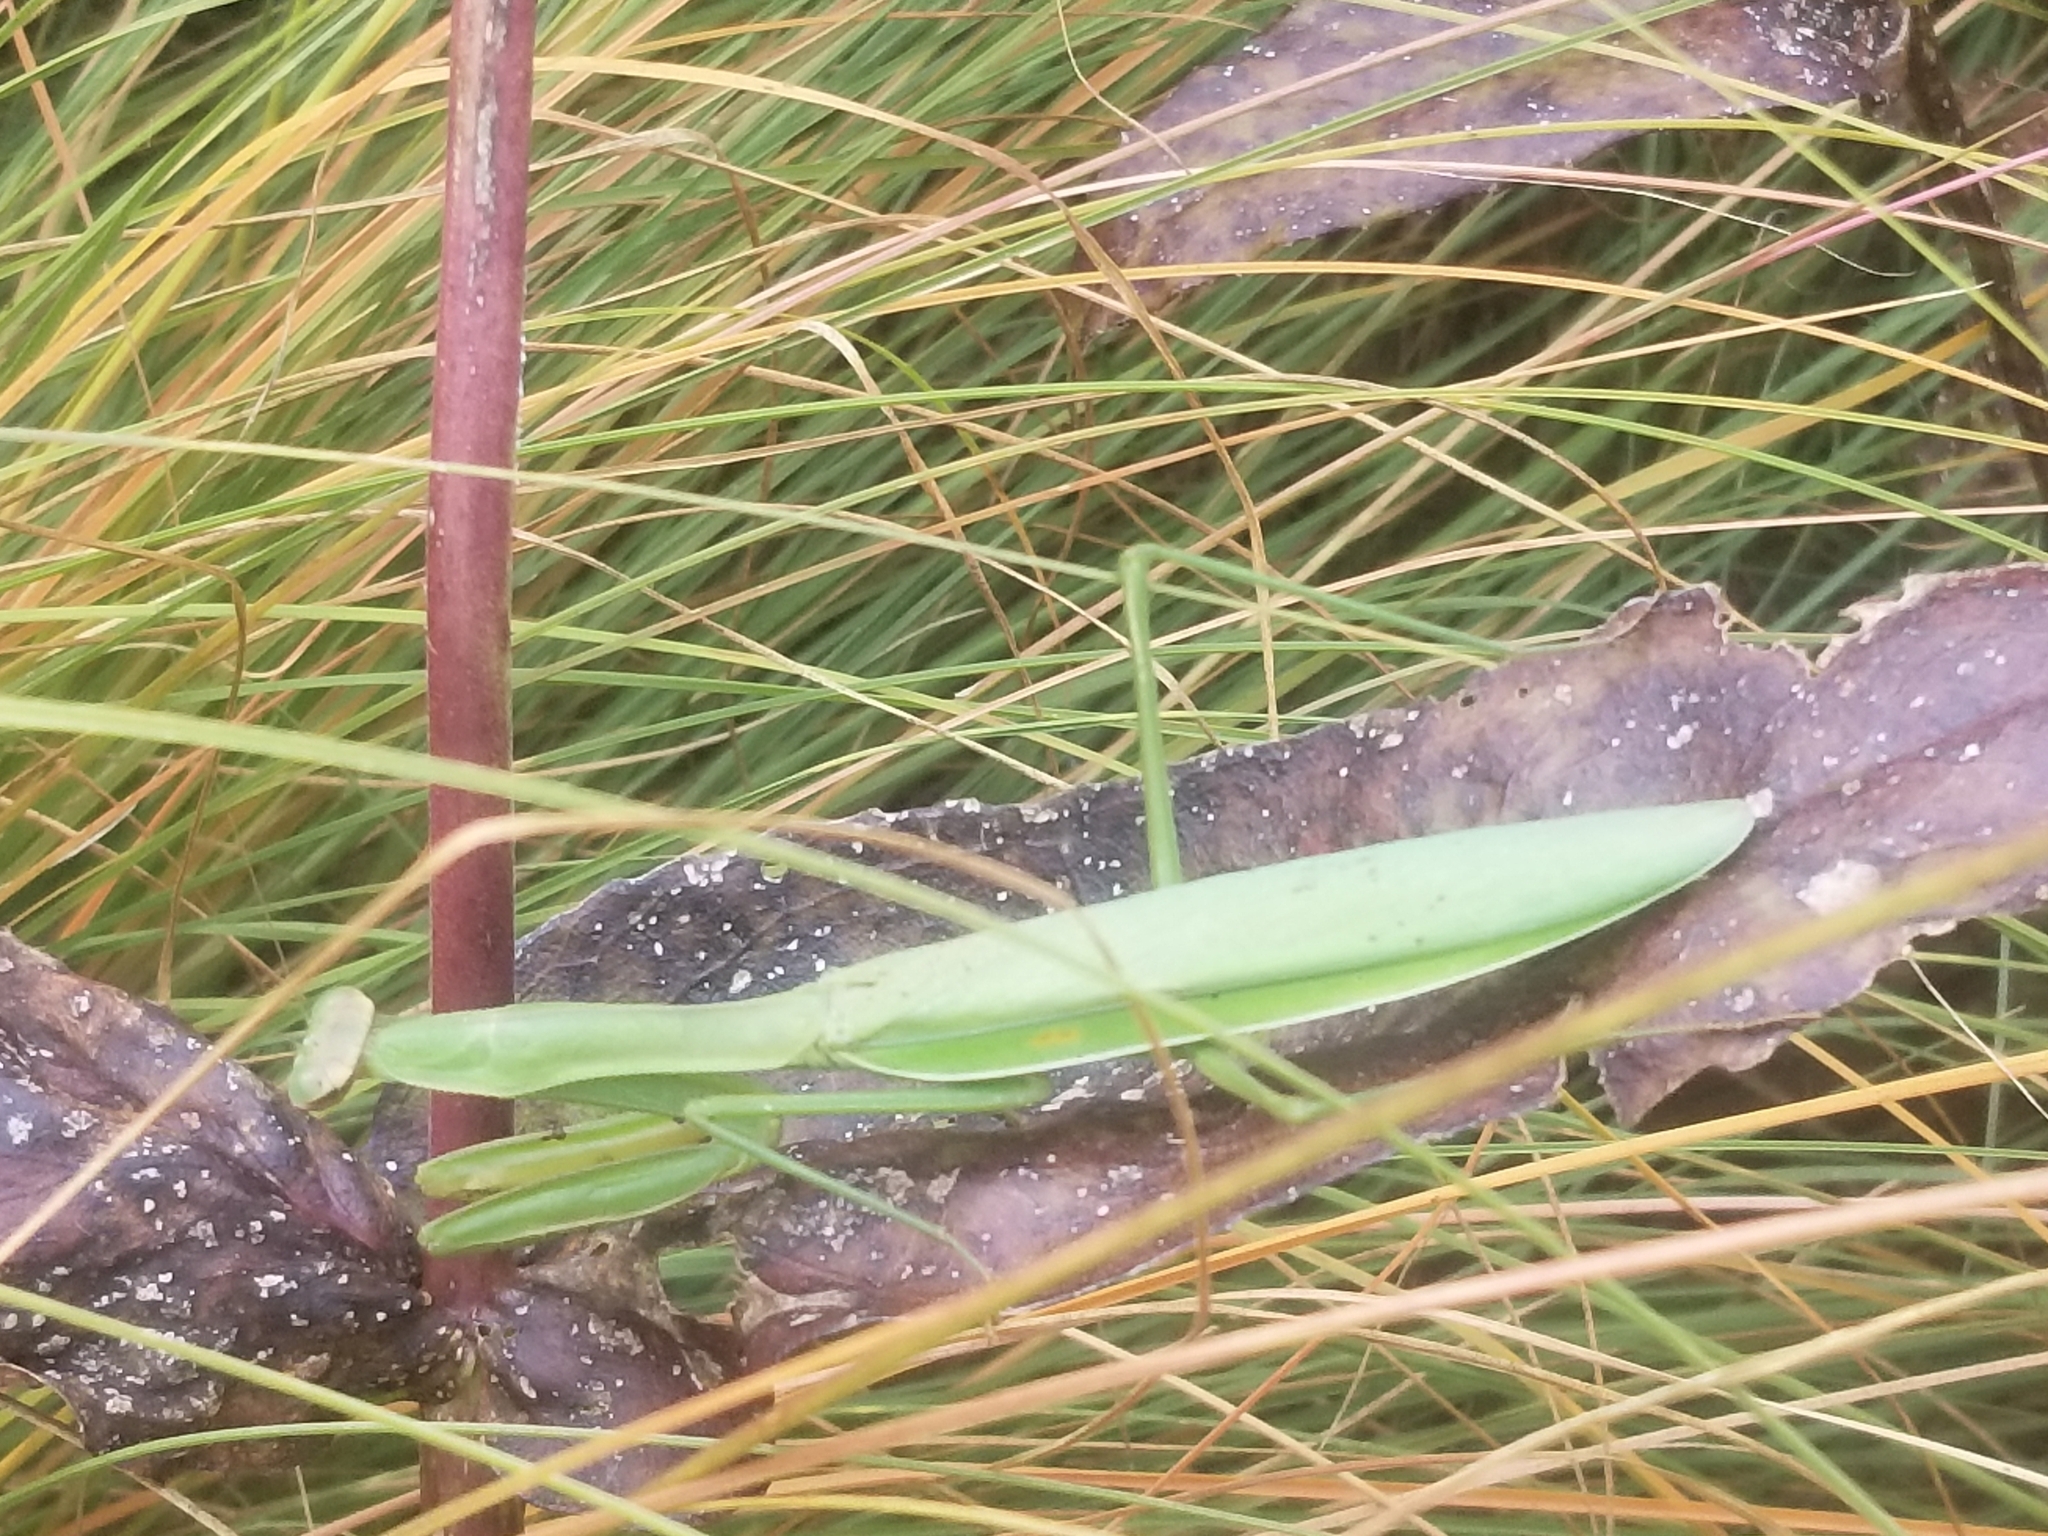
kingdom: Animalia
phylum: Arthropoda
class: Insecta
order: Mantodea
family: Mantidae
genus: Tenodera
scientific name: Tenodera sinensis
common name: Chinese mantis
